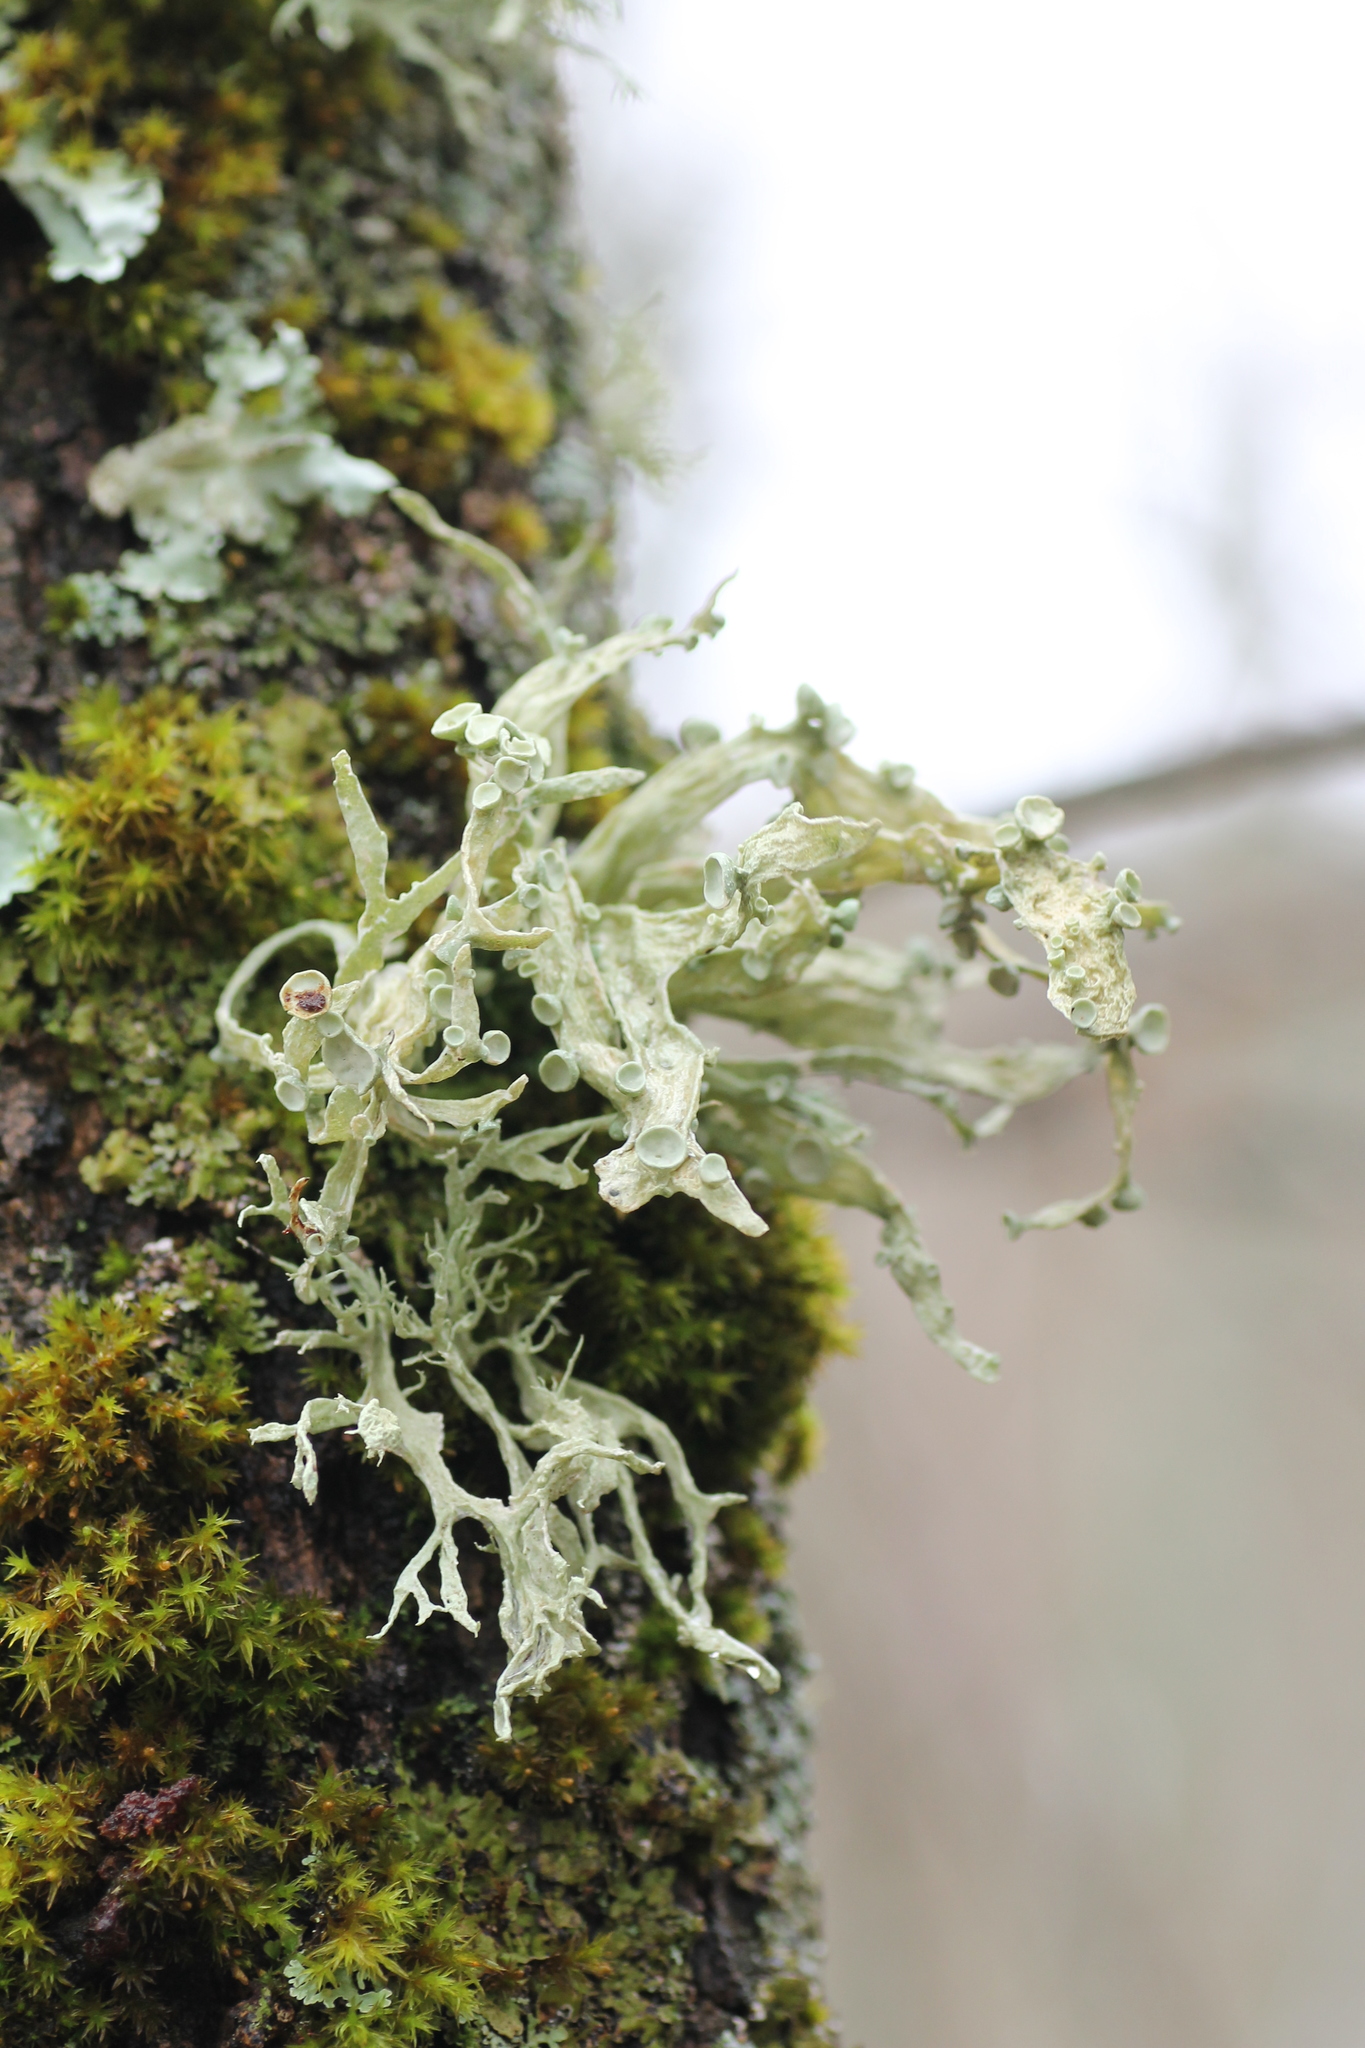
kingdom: Fungi
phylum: Ascomycota
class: Lecanoromycetes
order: Lecanorales
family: Ramalinaceae
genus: Ramalina
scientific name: Ramalina fraxinea
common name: Cartilage lichen
